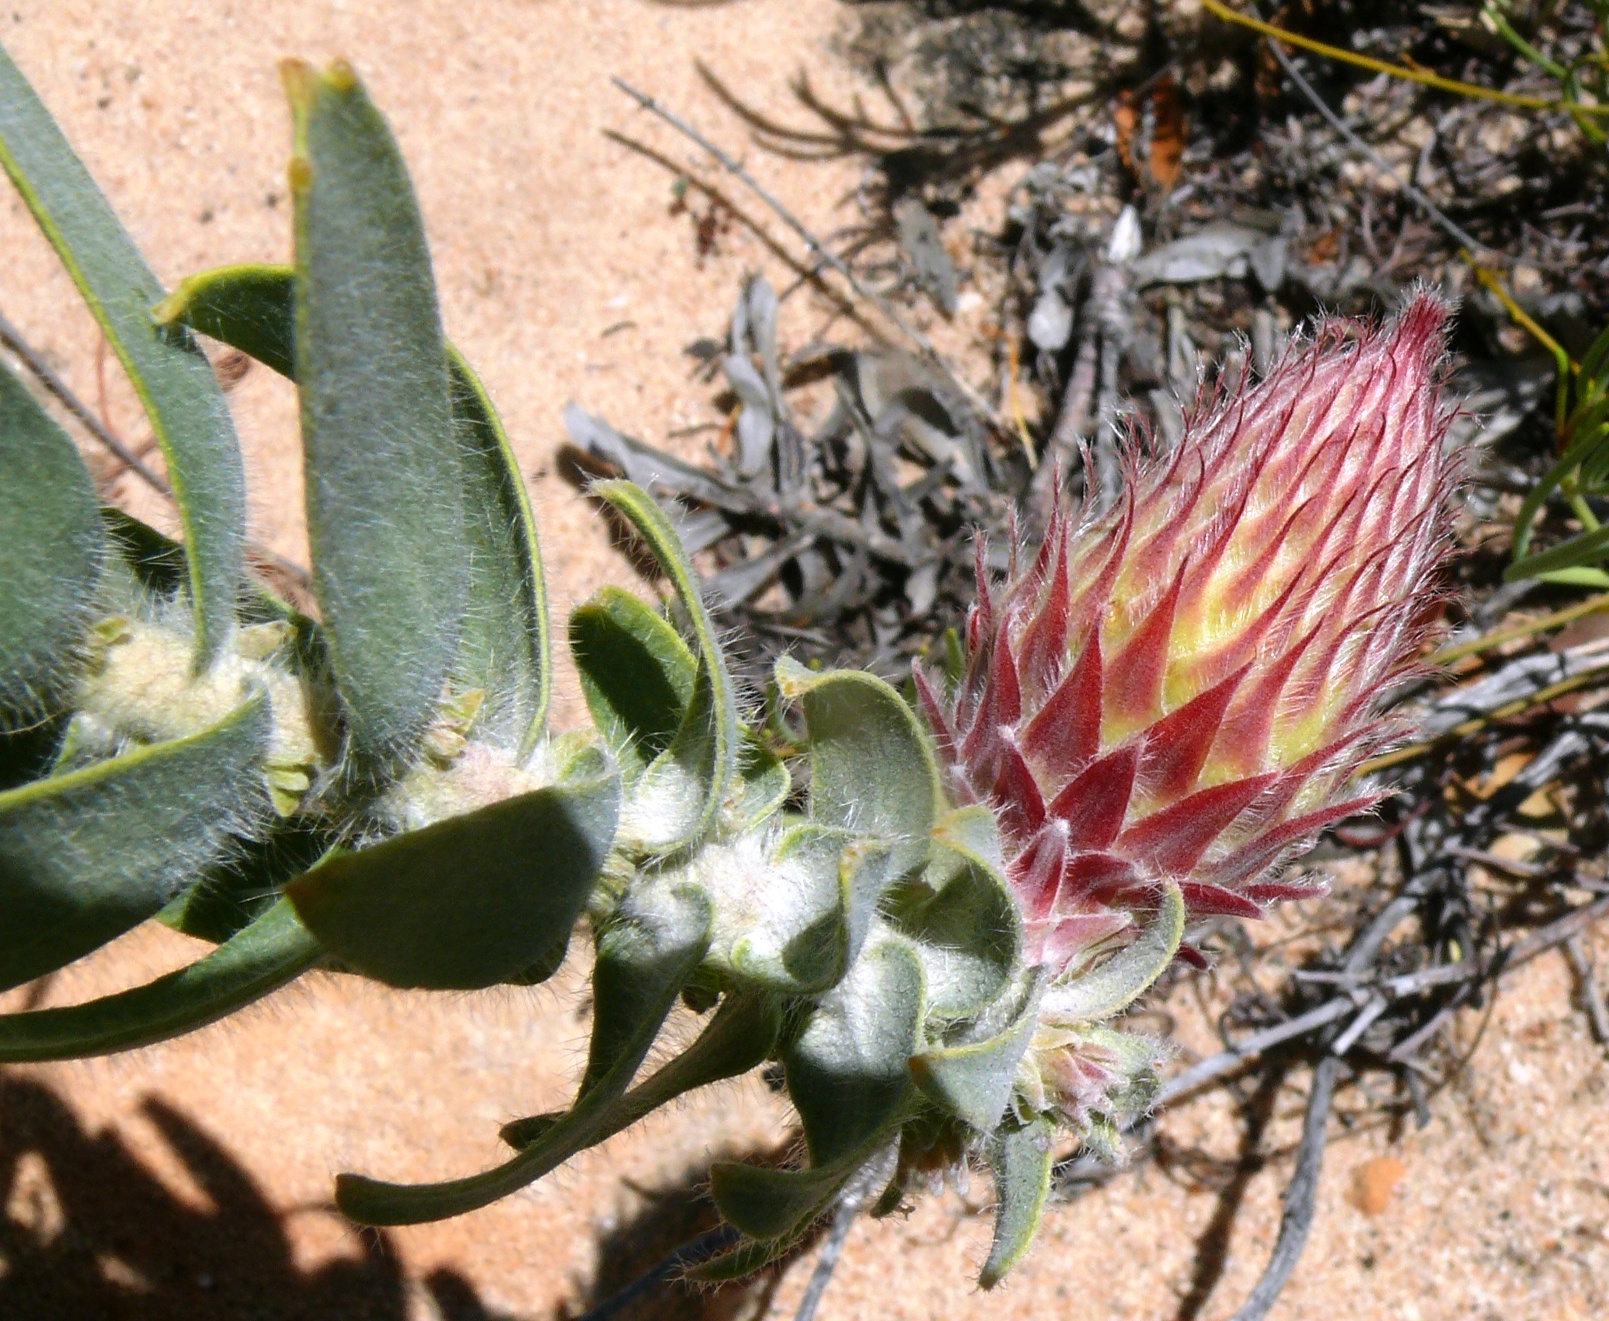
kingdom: Plantae
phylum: Tracheophyta
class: Magnoliopsida
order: Proteales
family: Proteaceae
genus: Leucospermum
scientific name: Leucospermum vestitum
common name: Silky-hair pincushion
